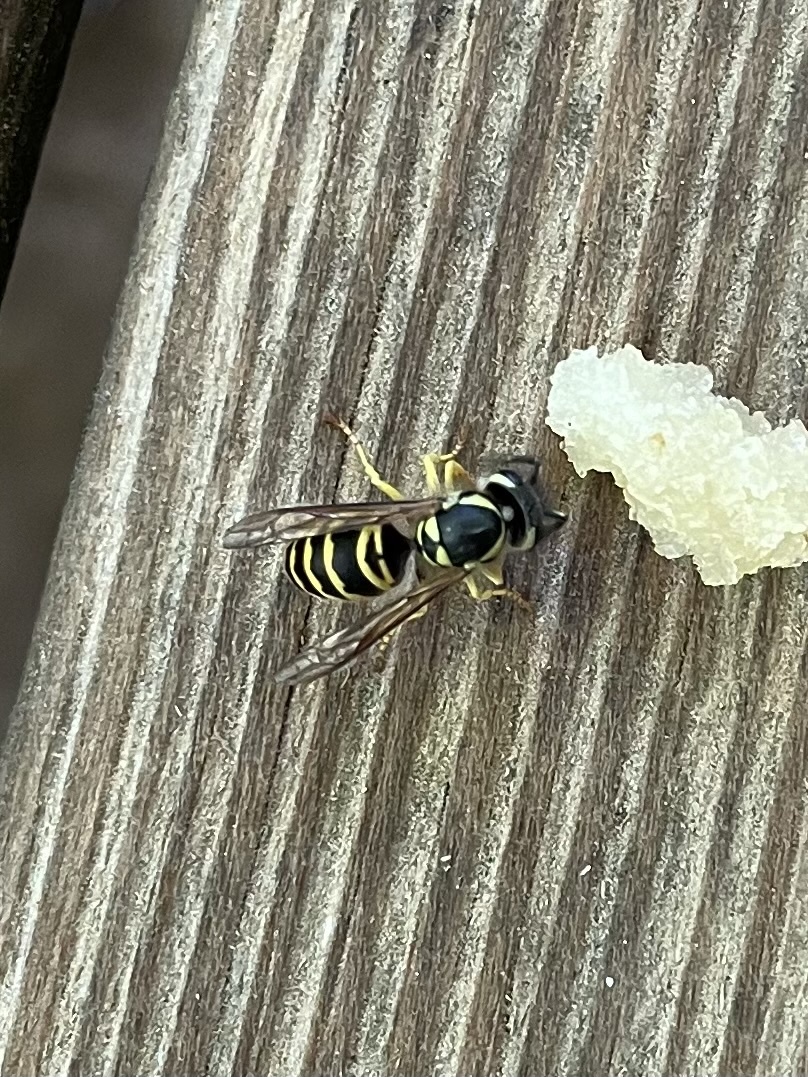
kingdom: Animalia
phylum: Arthropoda
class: Insecta
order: Hymenoptera
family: Vespidae
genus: Vespula
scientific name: Vespula maculifrons
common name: Eastern yellowjacket
